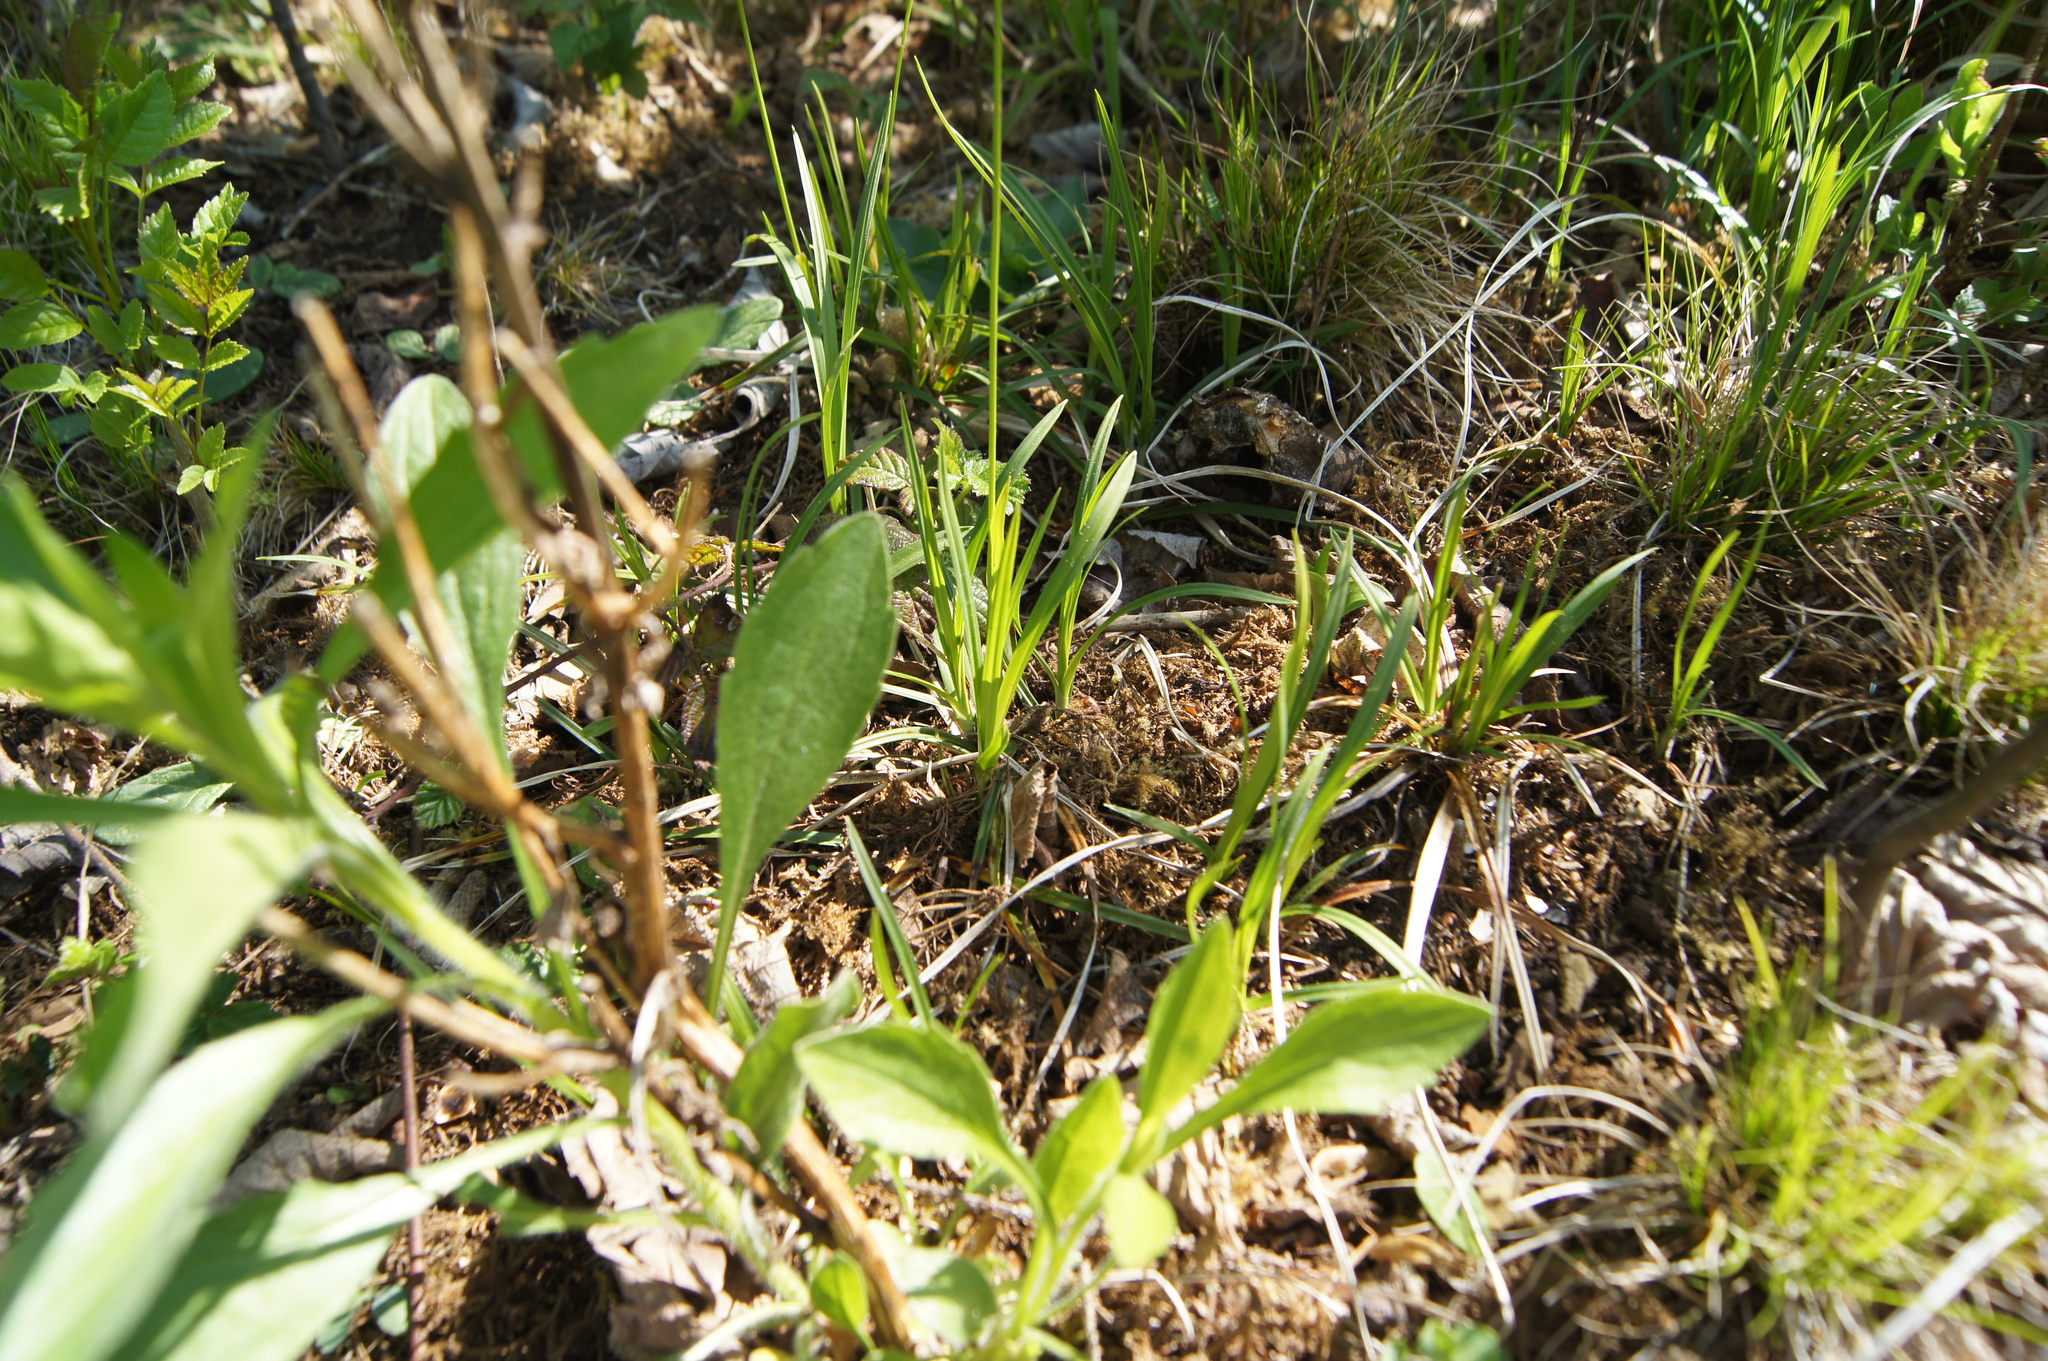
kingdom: Plantae
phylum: Tracheophyta
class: Liliopsida
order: Poales
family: Cyperaceae
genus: Carex
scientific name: Carex michelii
